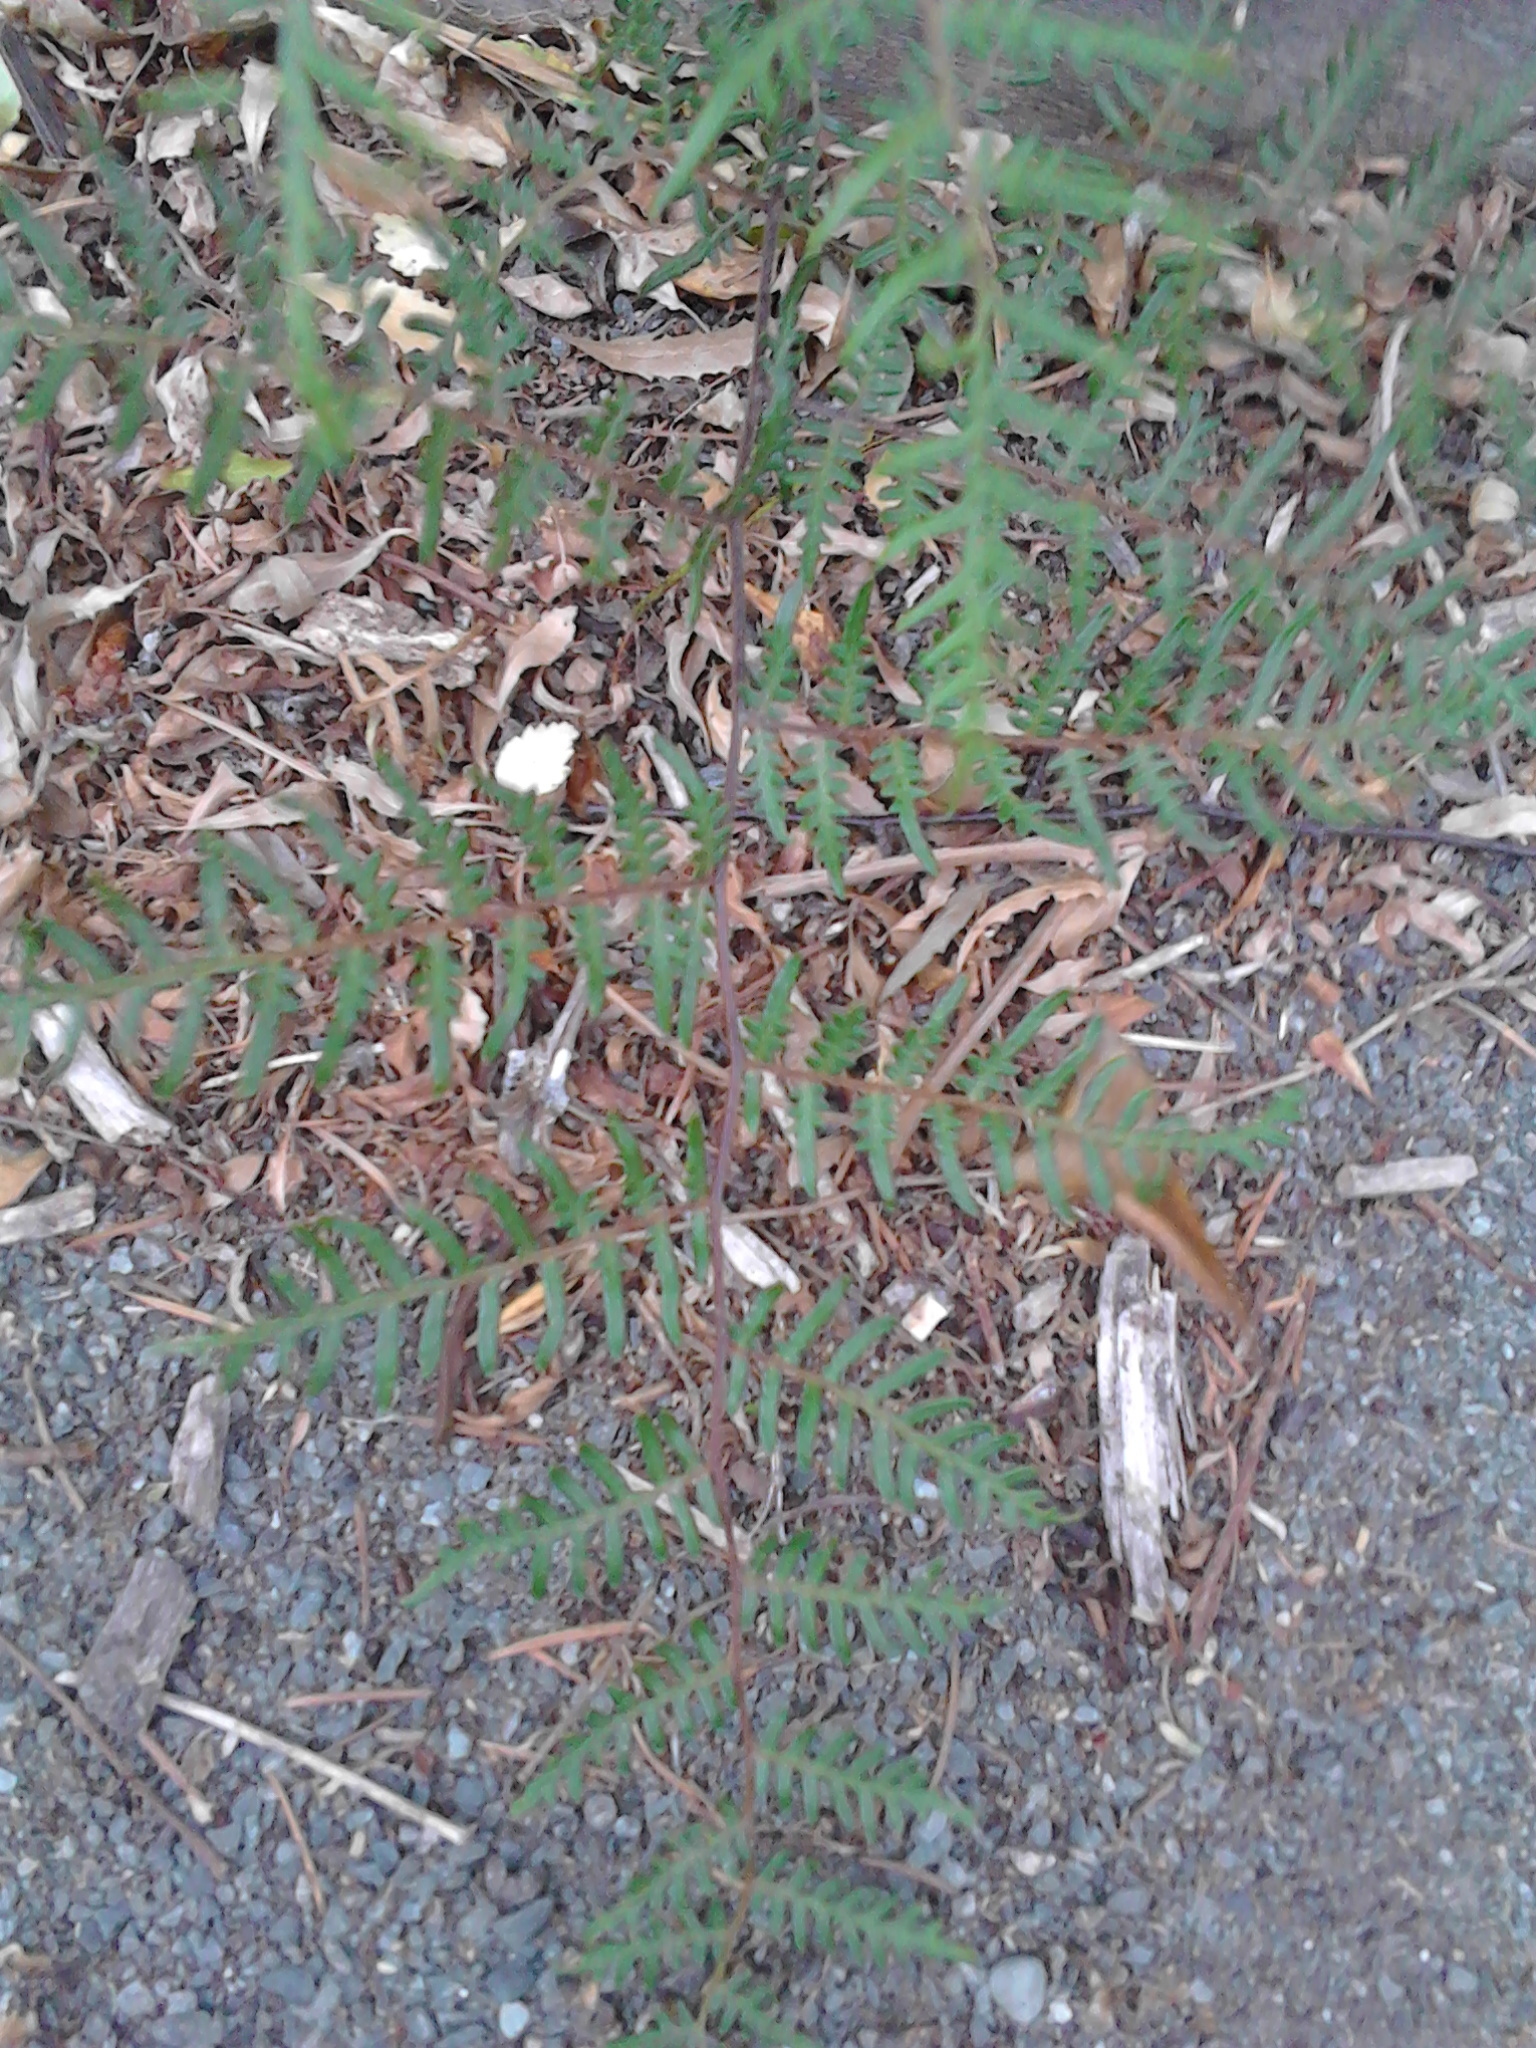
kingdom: Plantae
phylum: Tracheophyta
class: Polypodiopsida
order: Polypodiales
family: Dennstaedtiaceae
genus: Pteridium
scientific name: Pteridium esculentum
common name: Bracken fern
